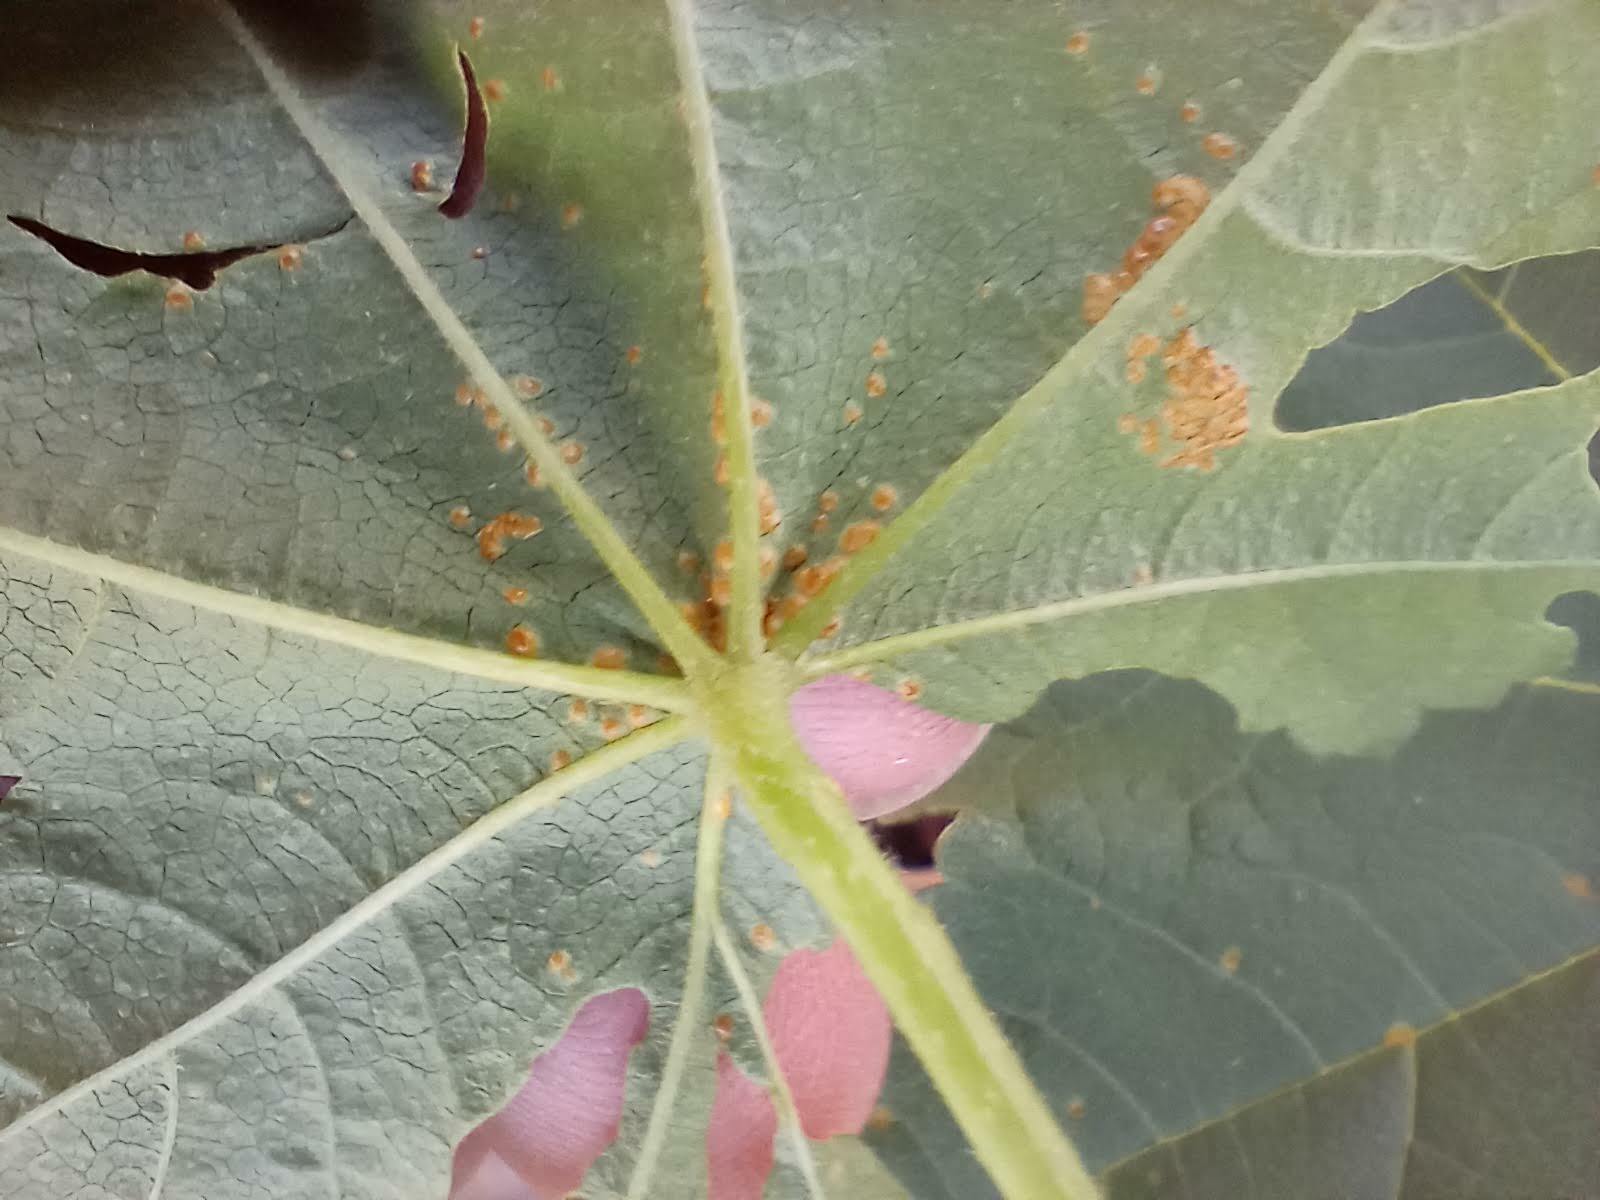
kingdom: Fungi
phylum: Basidiomycota
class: Pucciniomycetes
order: Pucciniales
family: Pucciniaceae
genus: Puccinia
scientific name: Puccinia malvacearum
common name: Hollyhock rust
